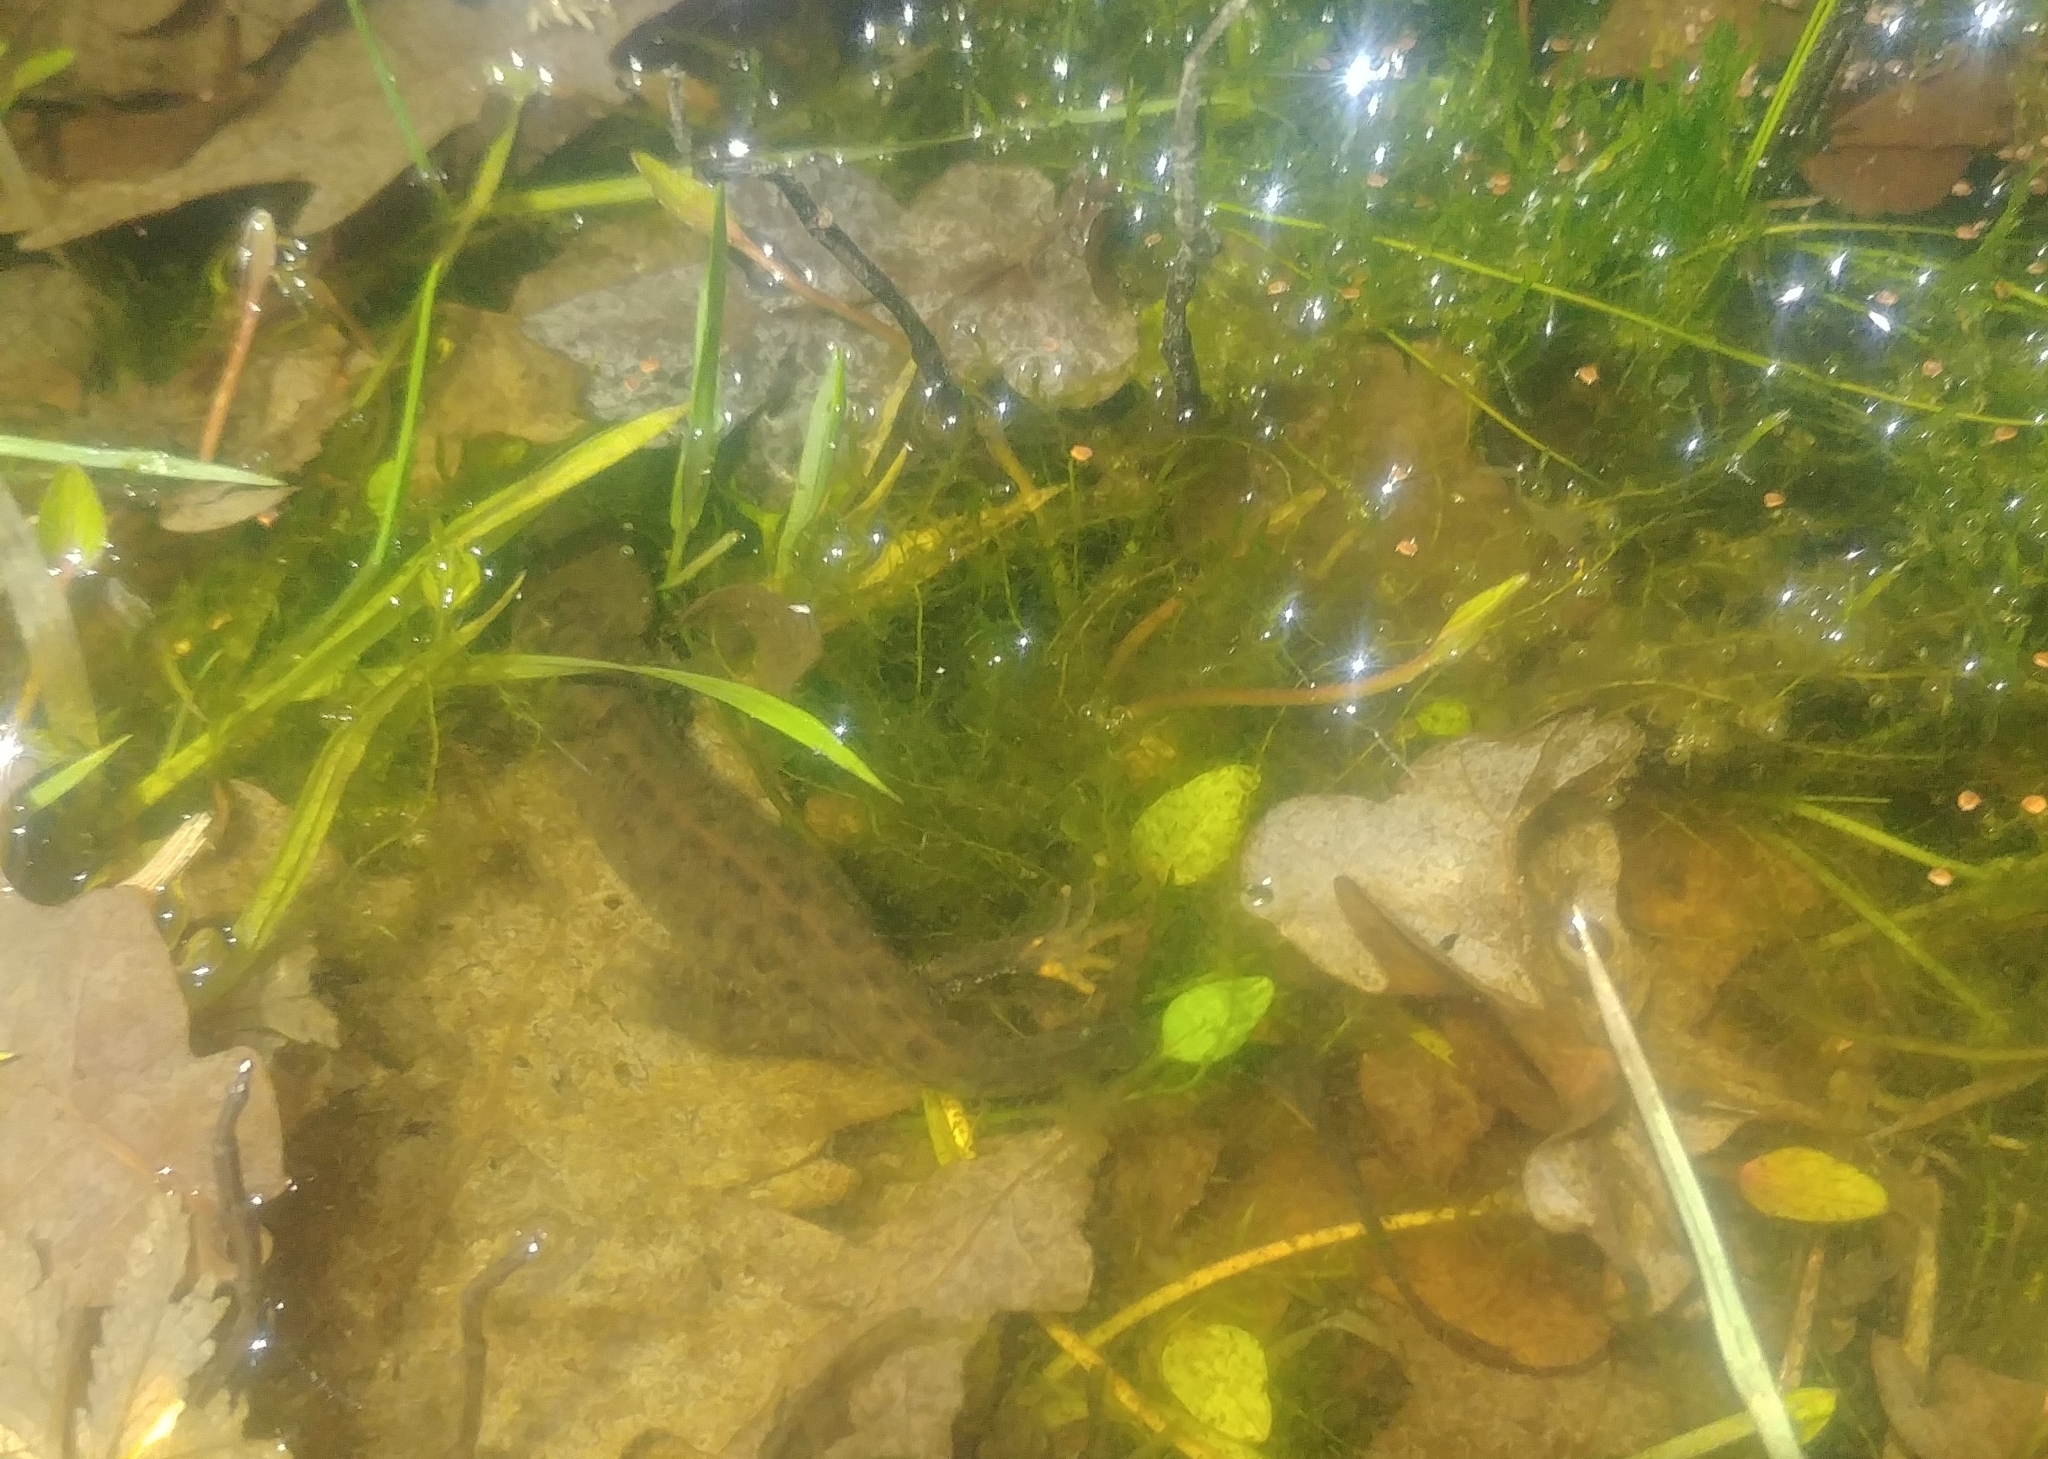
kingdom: Animalia
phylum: Chordata
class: Amphibia
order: Caudata
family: Salamandridae
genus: Triturus
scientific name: Triturus cristatus
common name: Crested newt
